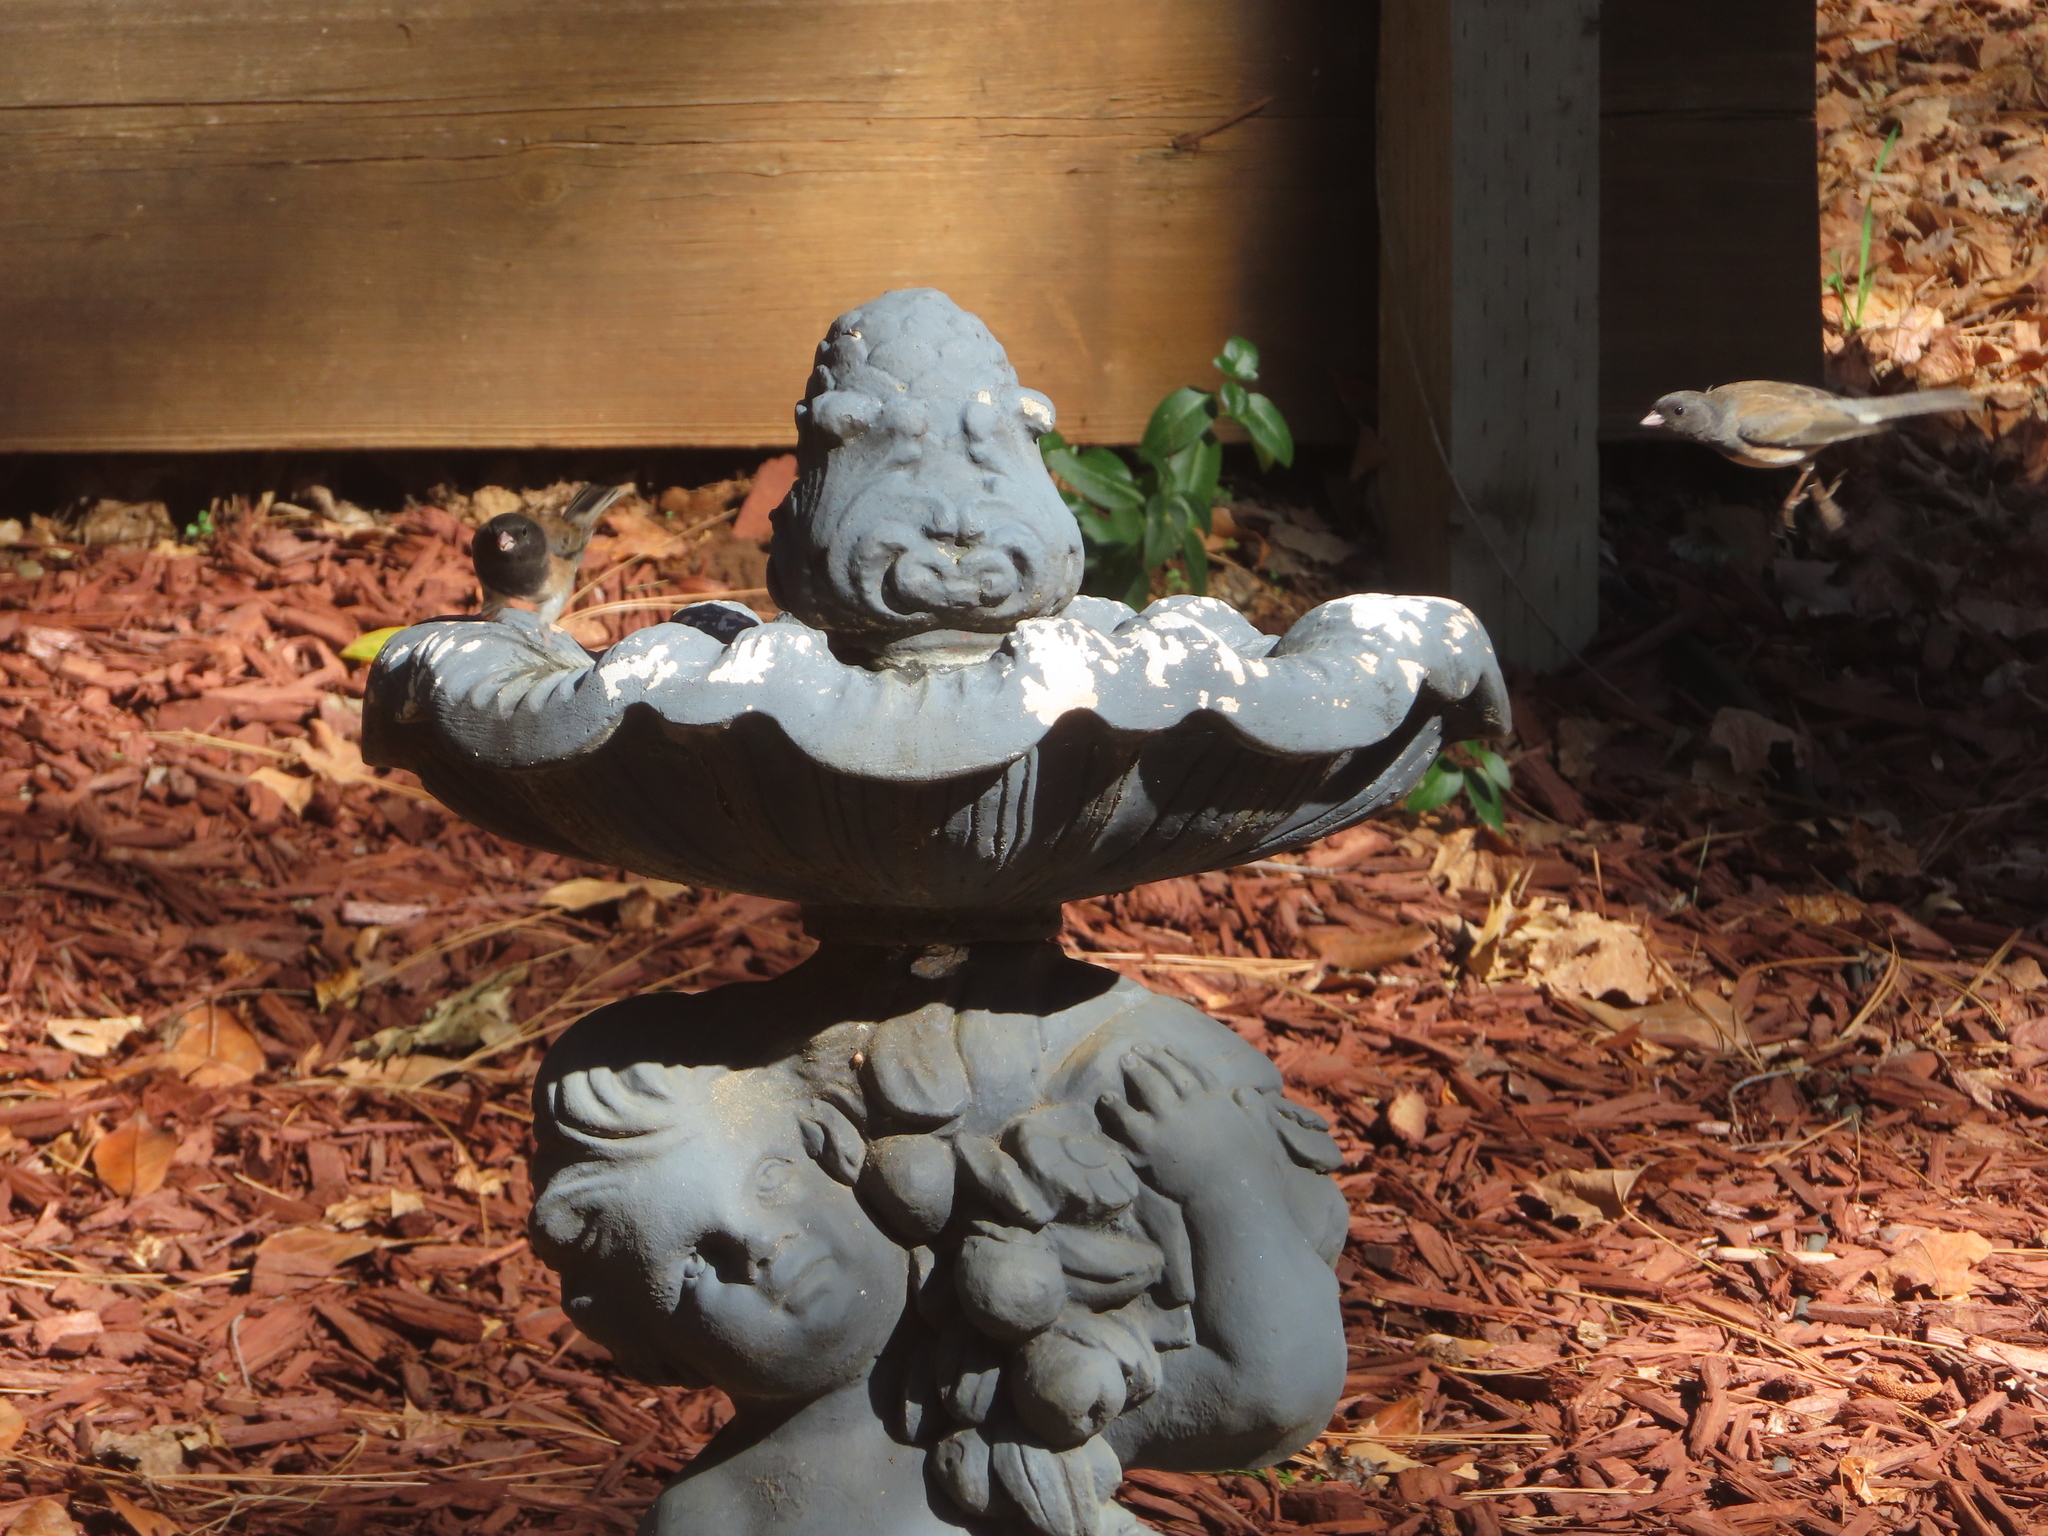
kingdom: Animalia
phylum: Chordata
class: Aves
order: Passeriformes
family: Passerellidae
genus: Junco
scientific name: Junco hyemalis
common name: Dark-eyed junco
